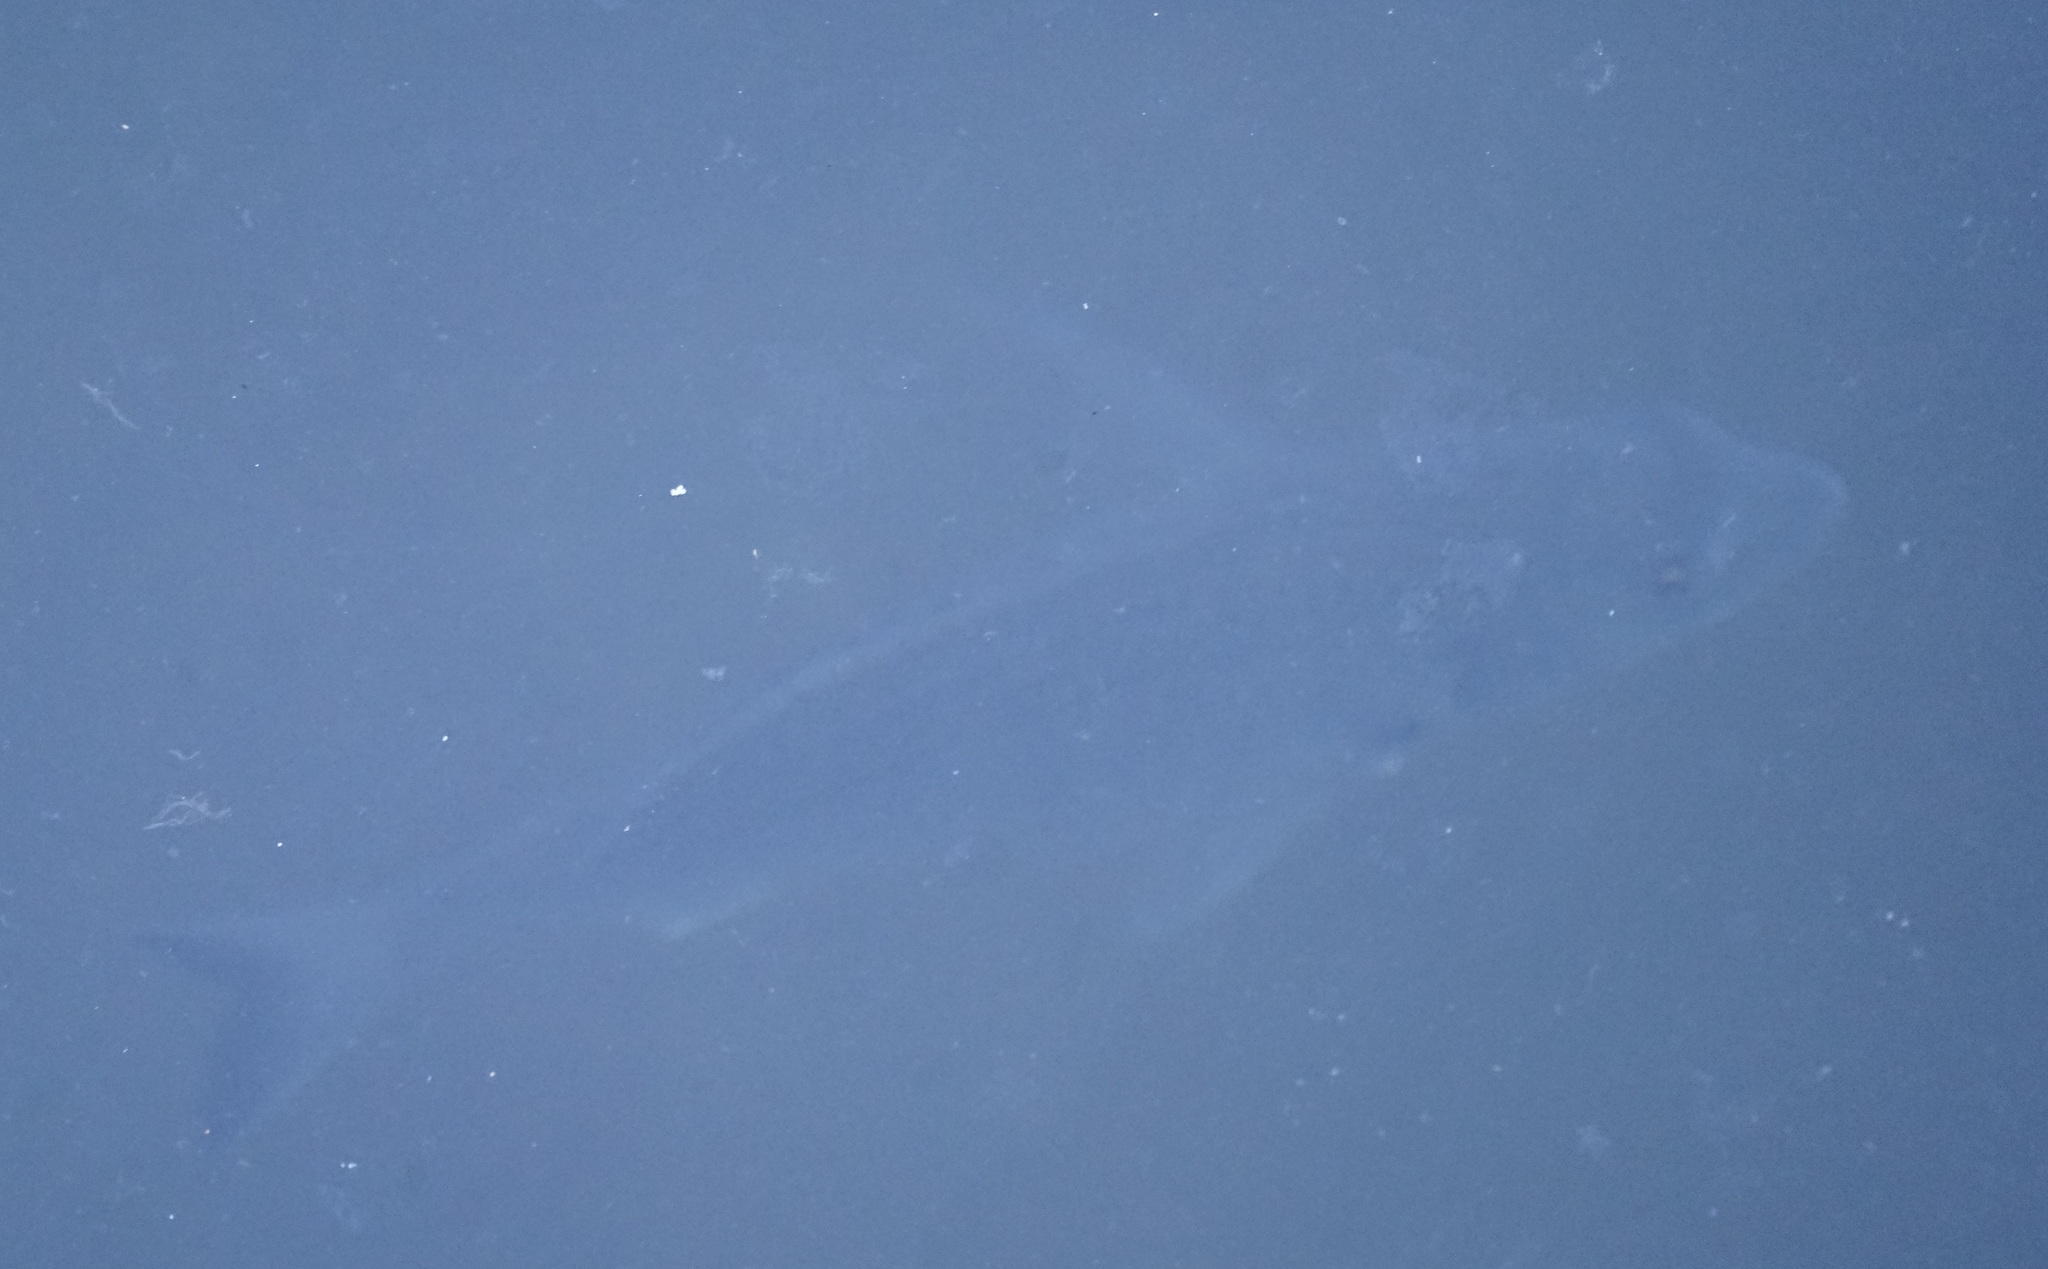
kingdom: Animalia
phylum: Chordata
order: Perciformes
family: Sparidae
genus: Acanthopagrus
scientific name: Acanthopagrus australis
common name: Surf bream
